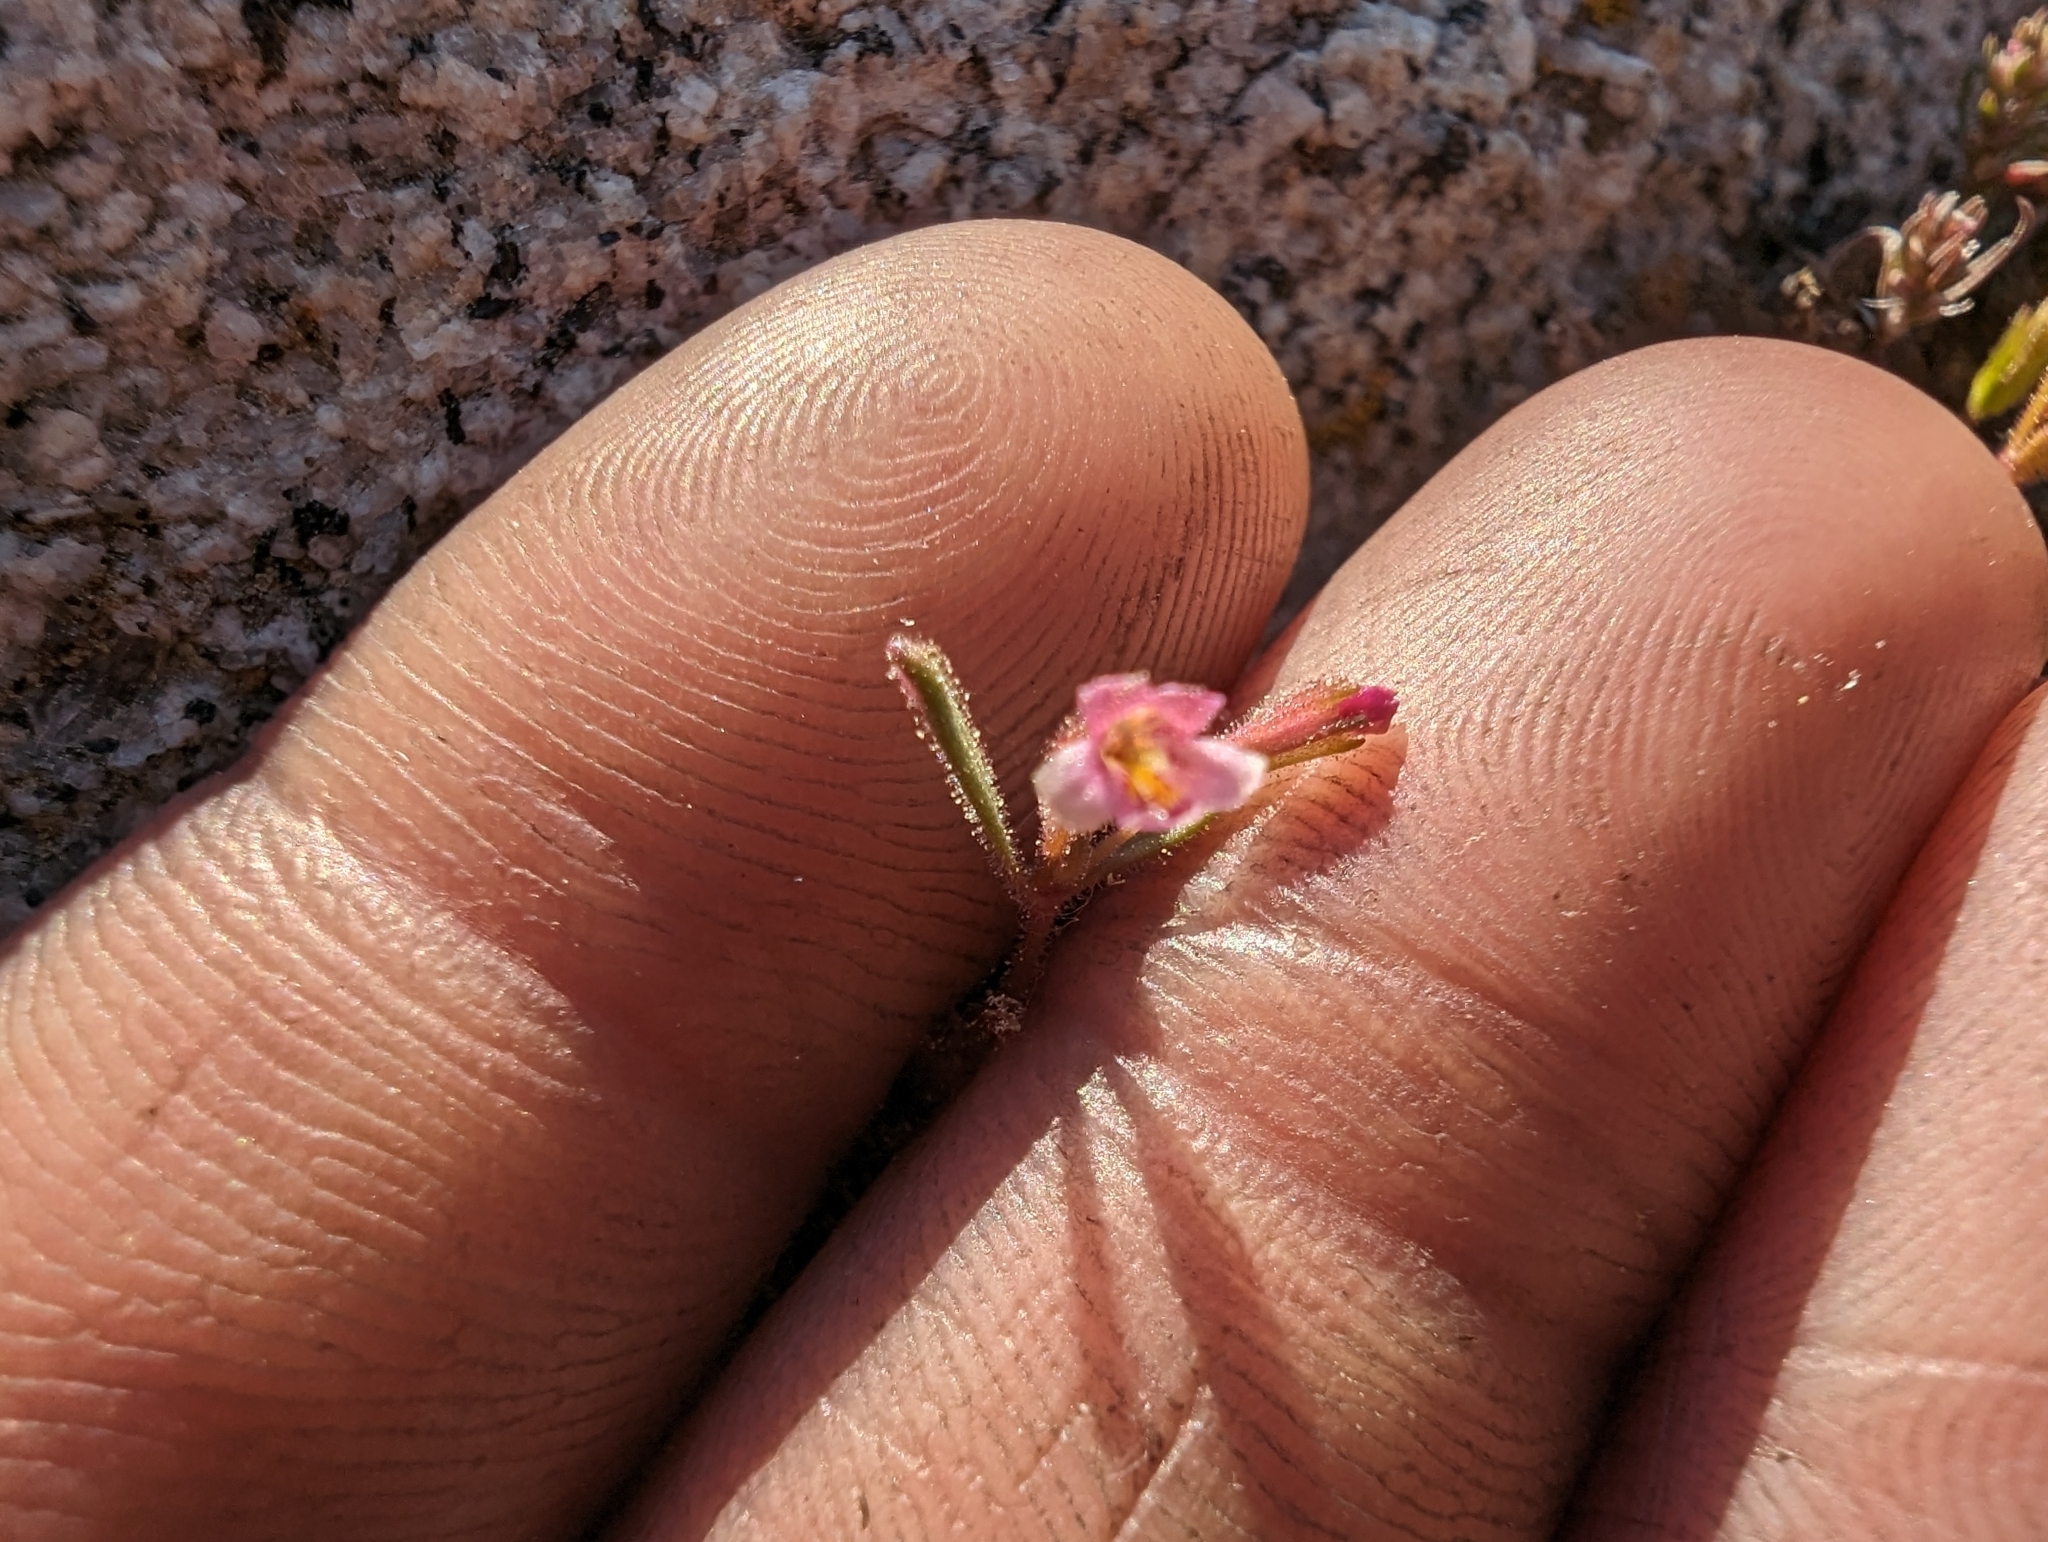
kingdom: Plantae
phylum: Tracheophyta
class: Magnoliopsida
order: Lamiales
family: Phrymaceae
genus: Erythranthe
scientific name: Erythranthe breweri
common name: Brewer's monkeyflower
